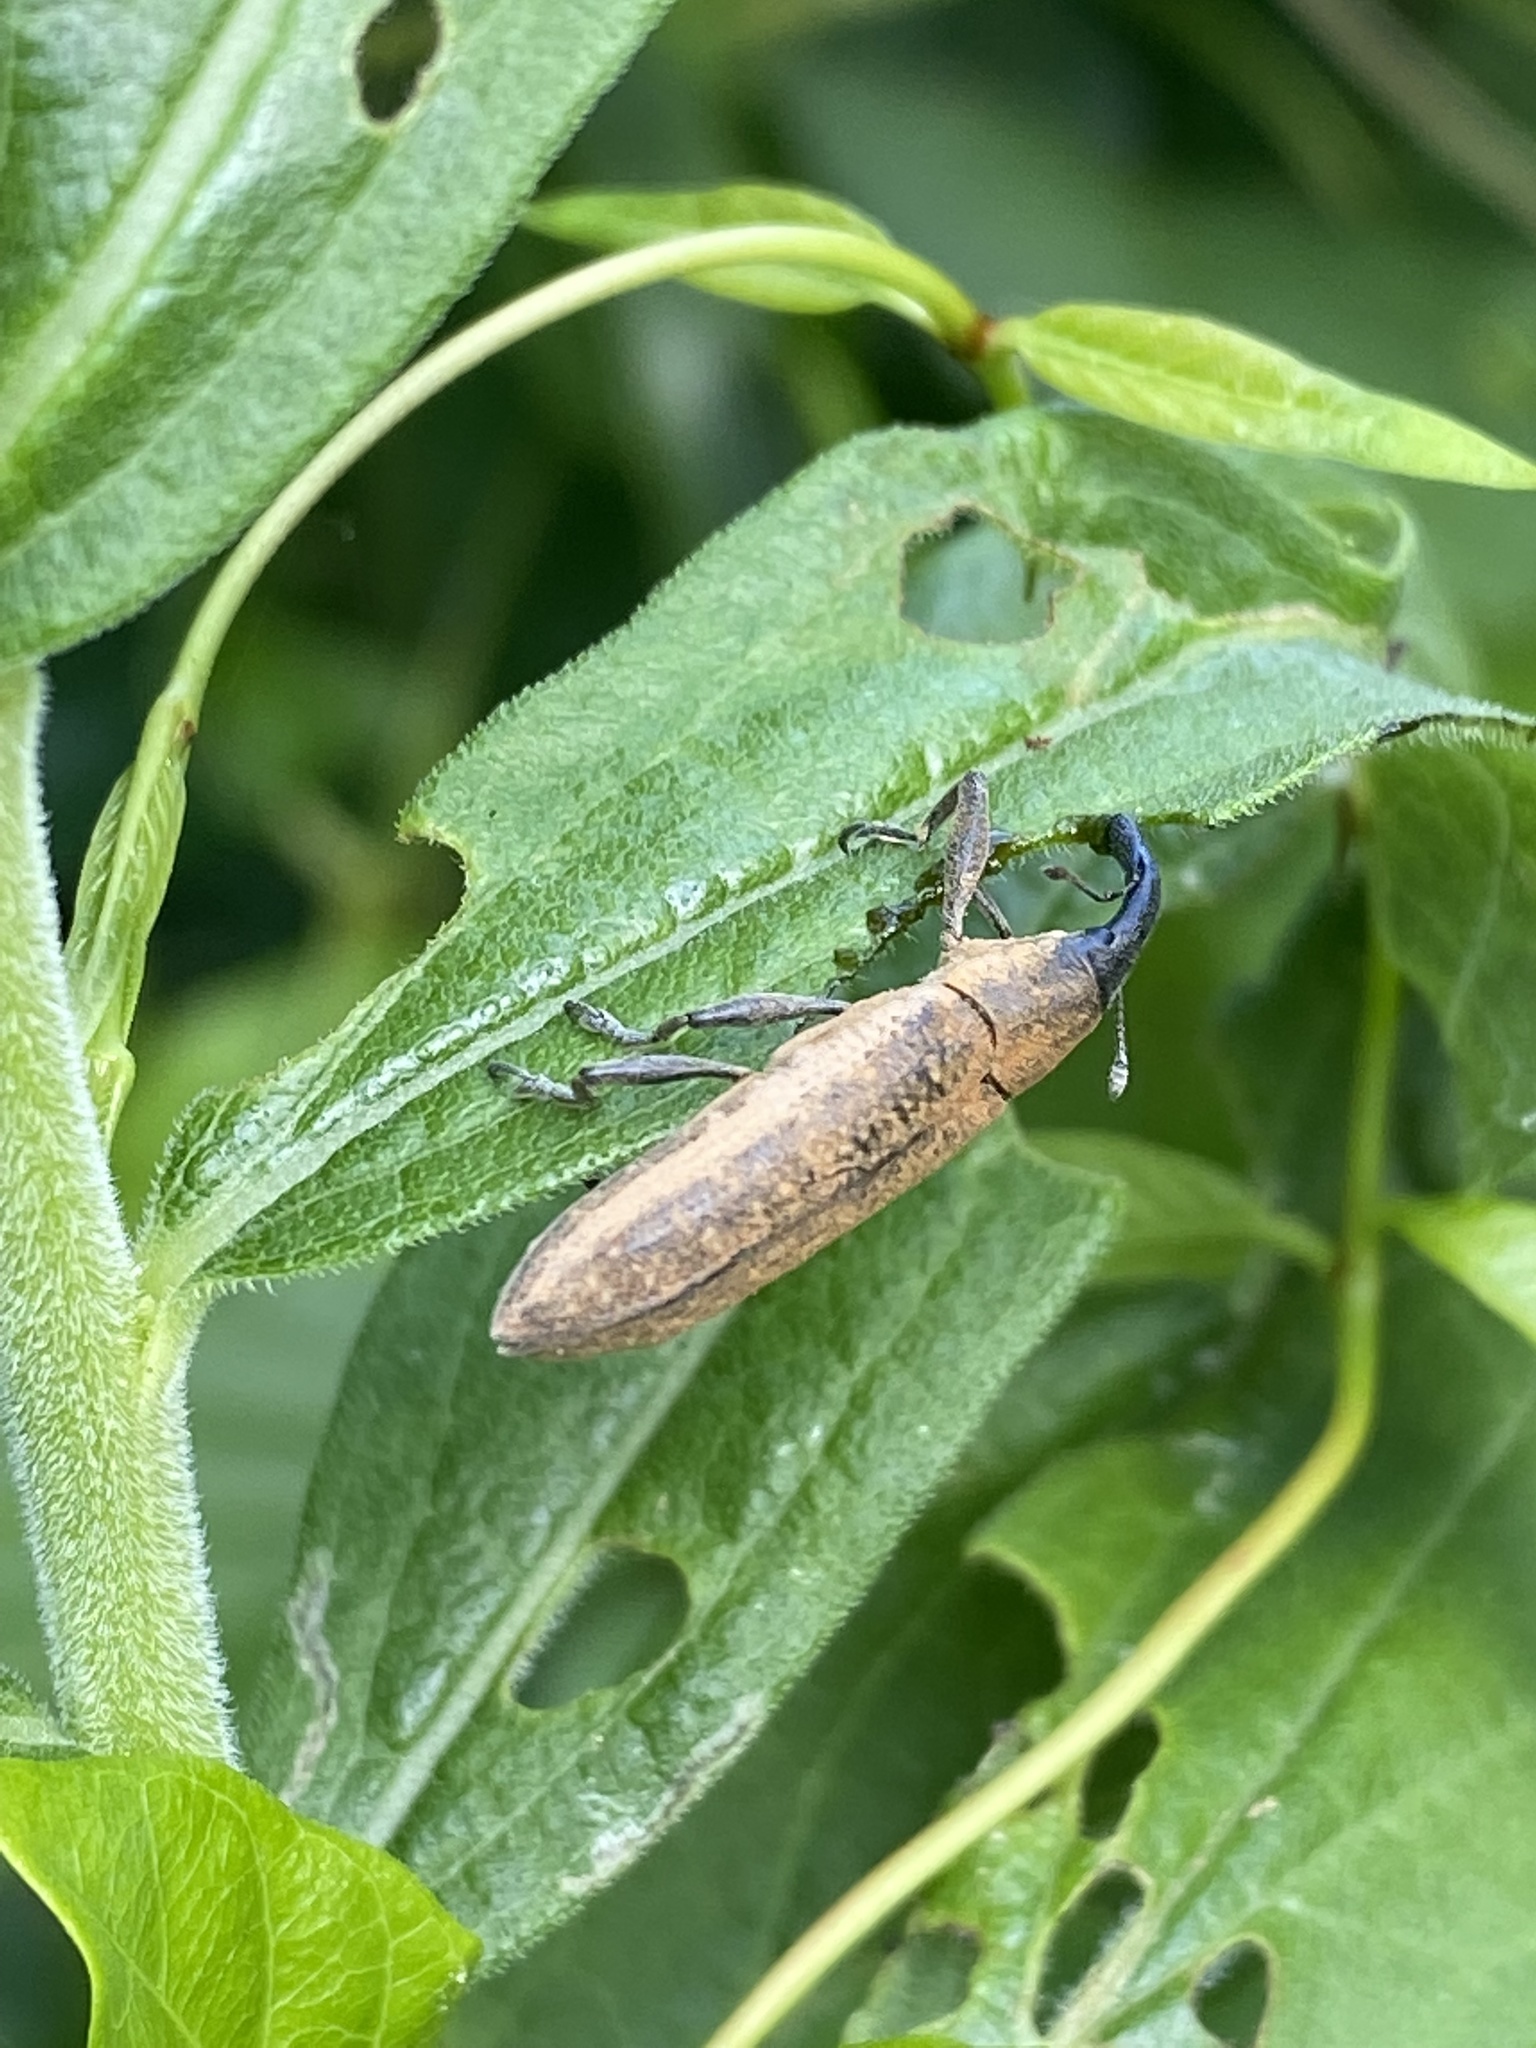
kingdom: Animalia
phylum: Arthropoda
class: Insecta
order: Coleoptera
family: Curculionidae
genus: Lixus
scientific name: Lixus macer
